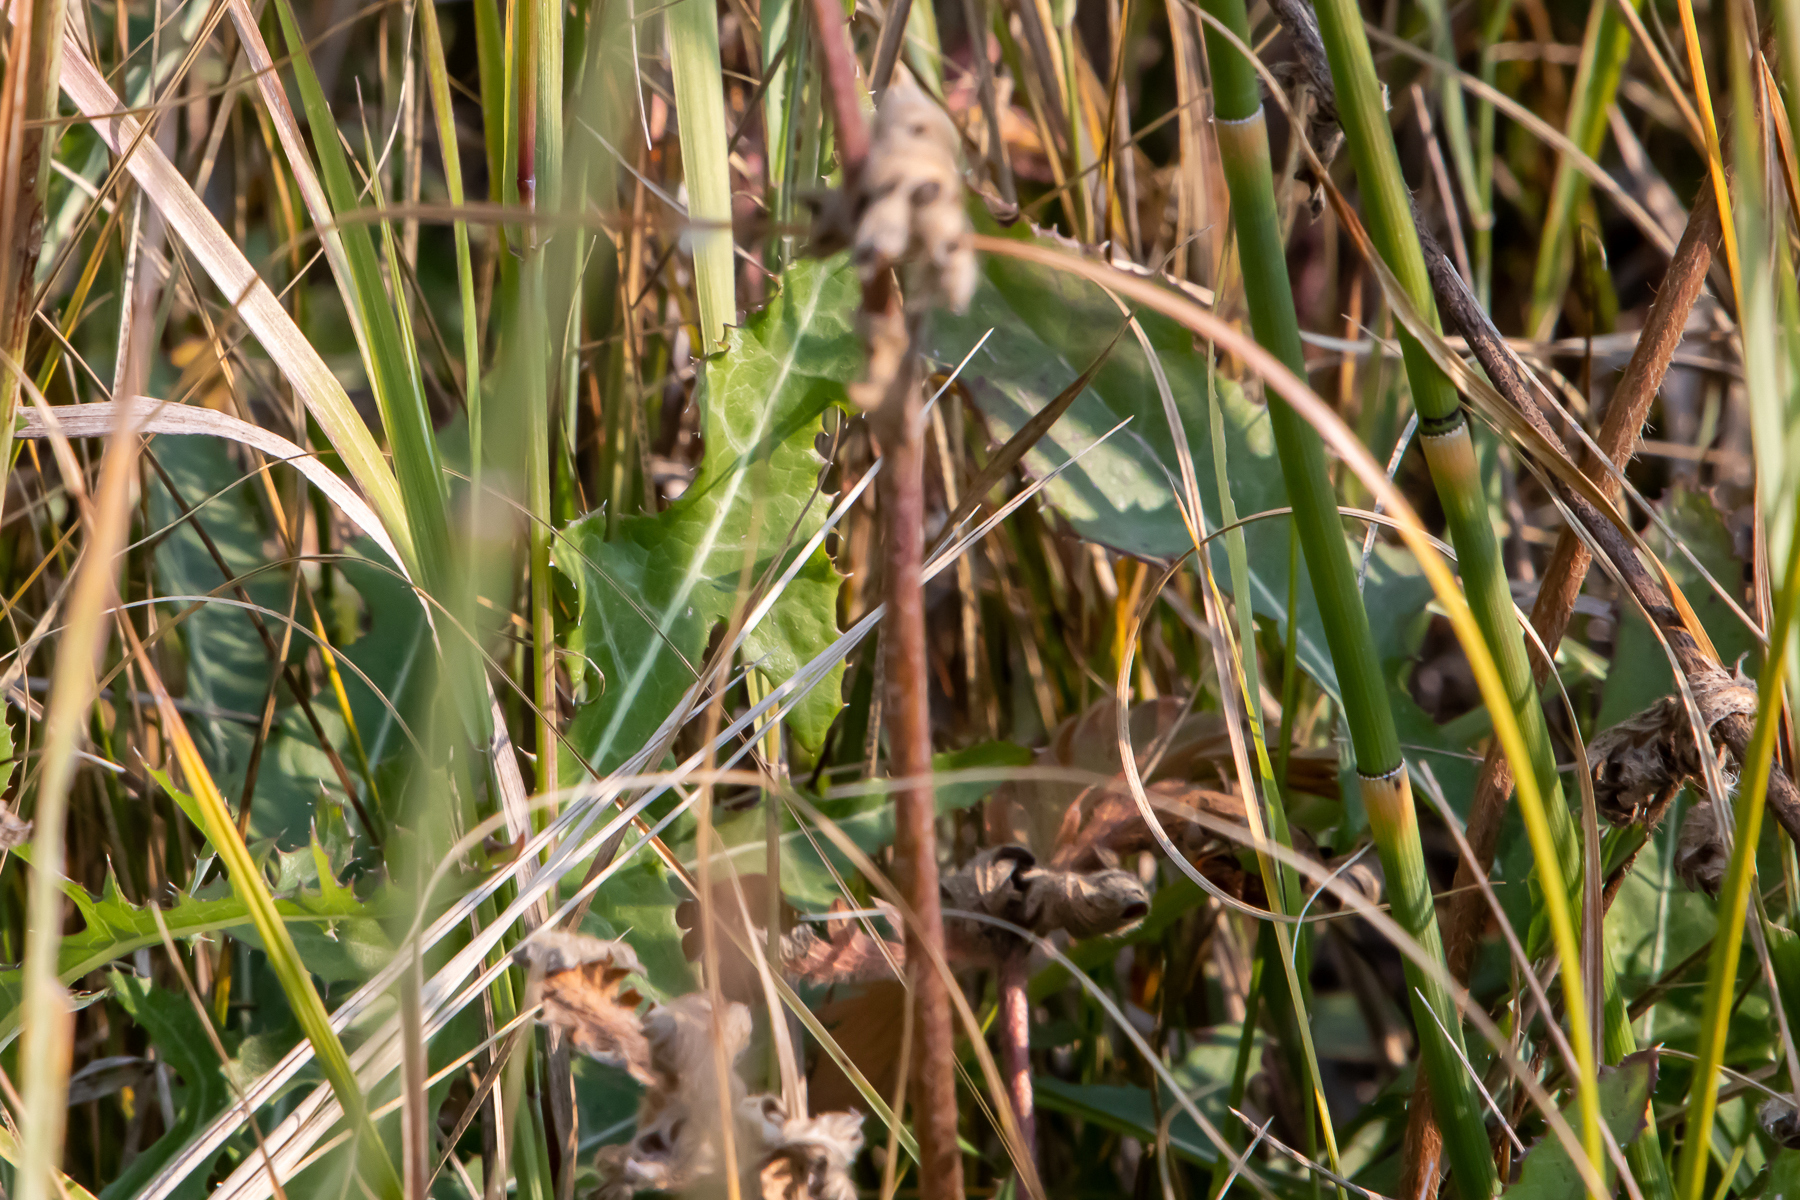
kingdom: Plantae
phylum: Tracheophyta
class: Magnoliopsida
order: Asterales
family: Asteraceae
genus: Crepis
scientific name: Crepis runcinata
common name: Dandelion hawksbeard
